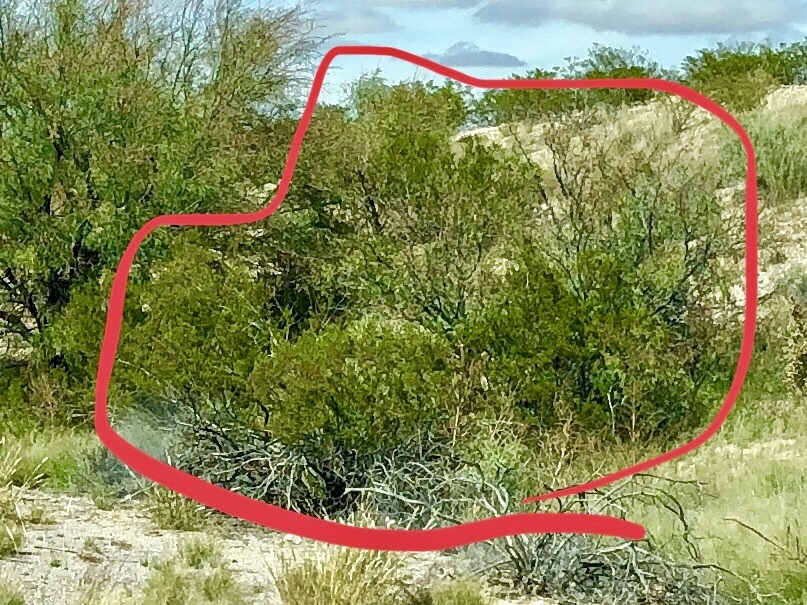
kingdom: Plantae
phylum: Tracheophyta
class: Magnoliopsida
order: Zygophyllales
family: Zygophyllaceae
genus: Larrea
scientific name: Larrea tridentata
